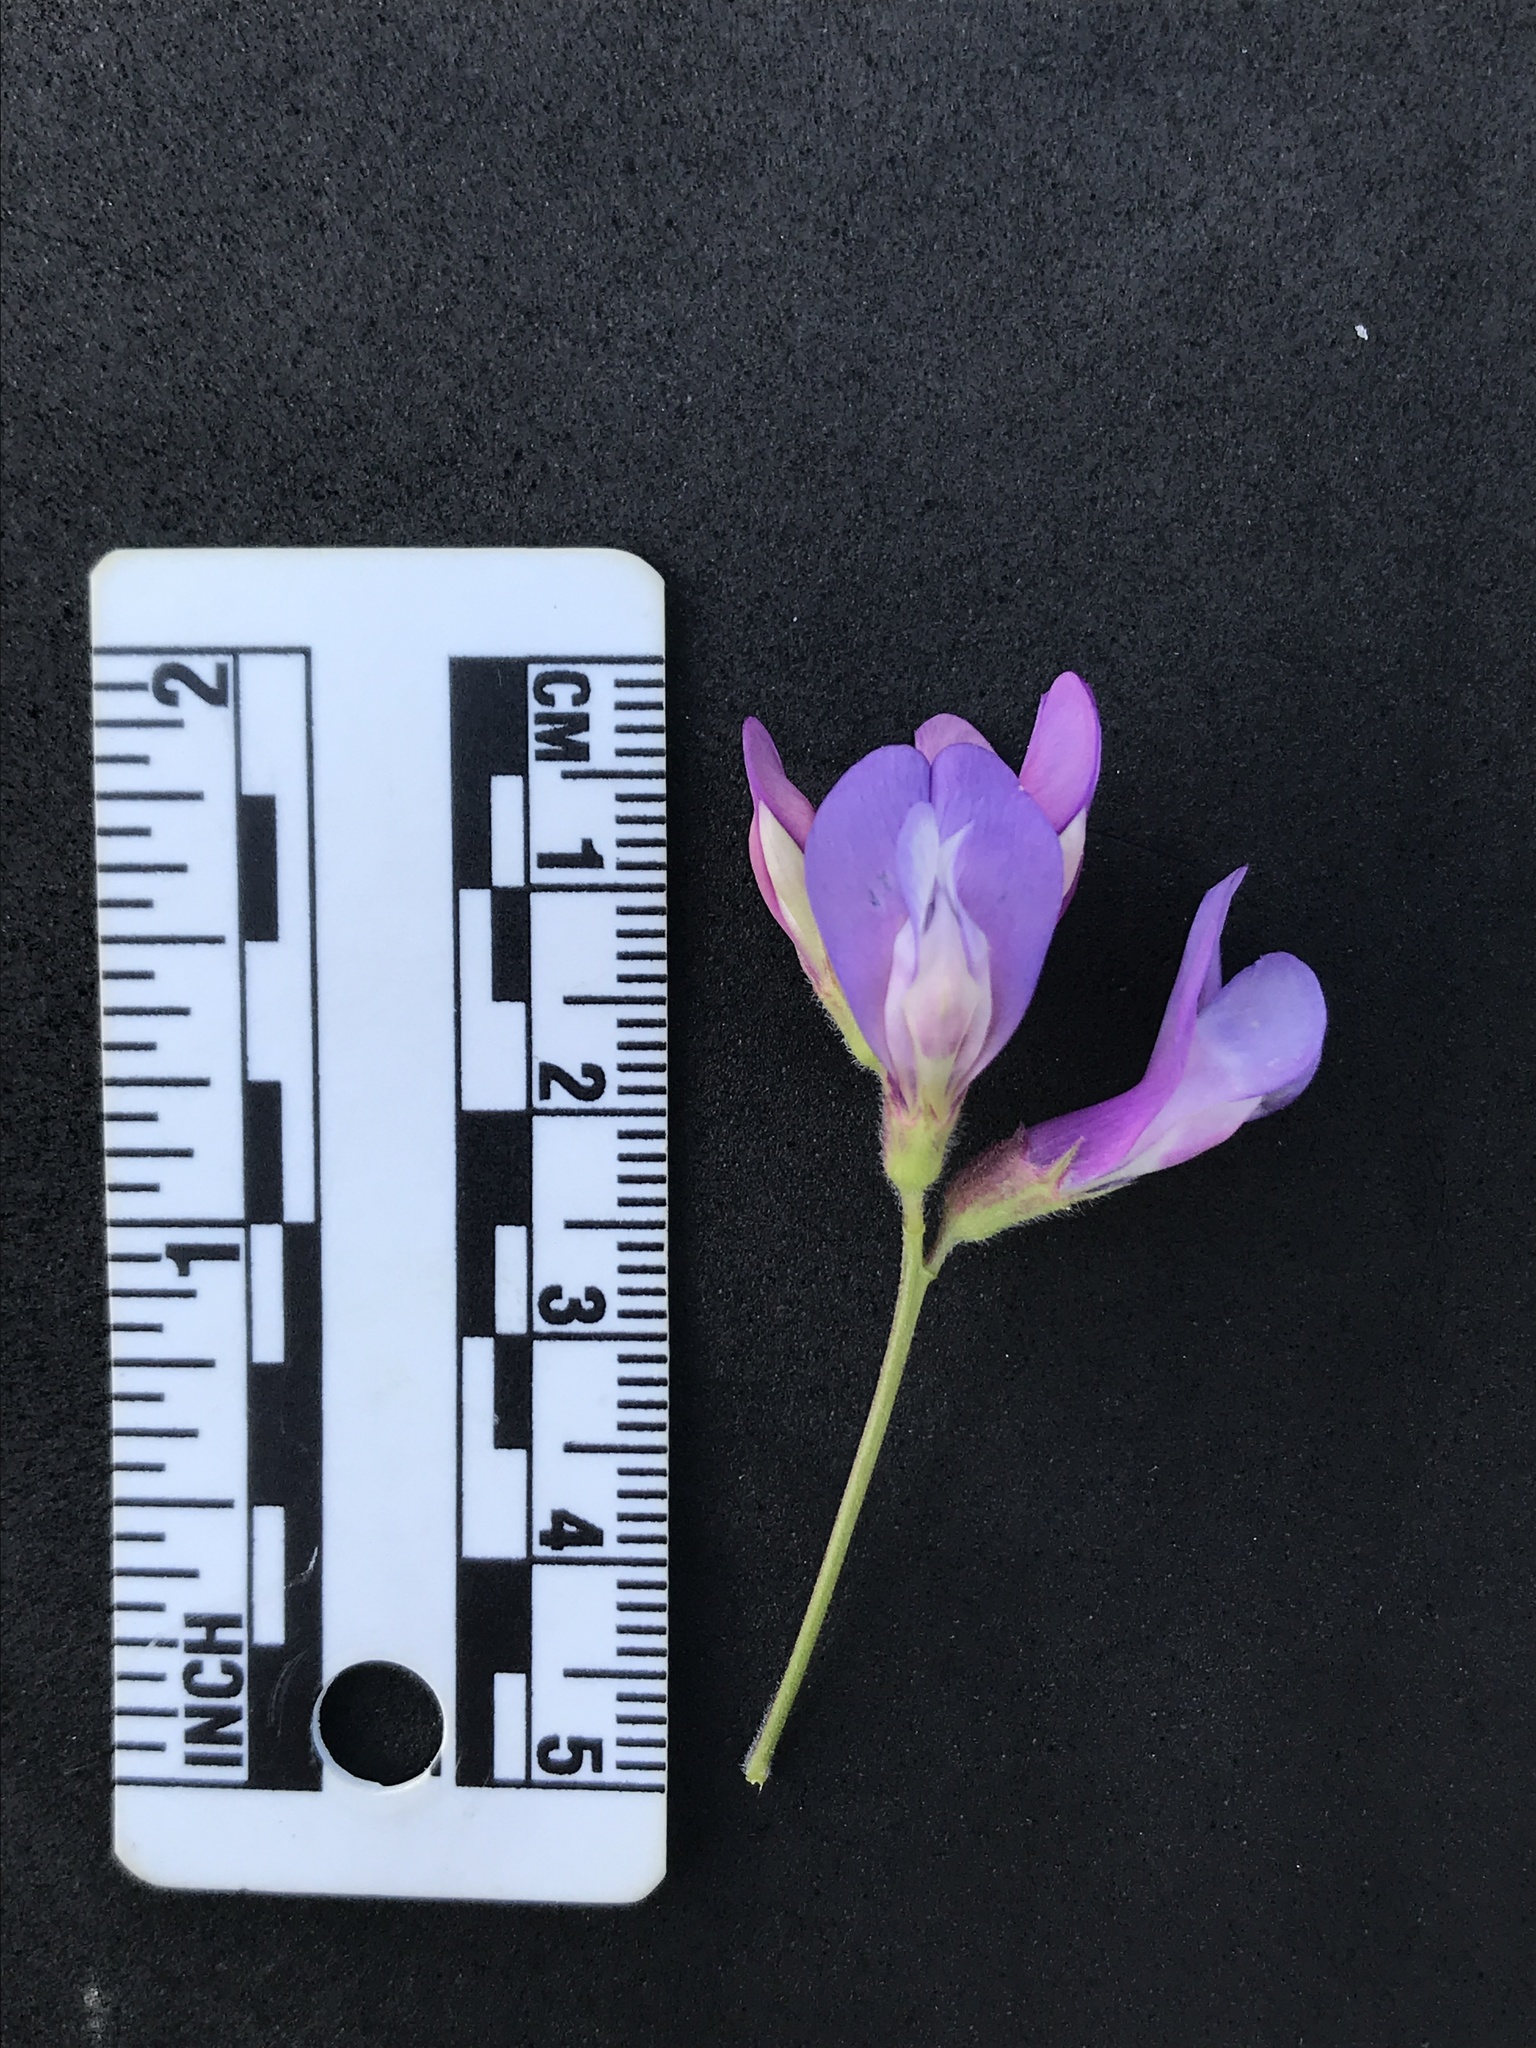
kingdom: Plantae
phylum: Tracheophyta
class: Magnoliopsida
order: Fabales
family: Fabaceae
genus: Vicia
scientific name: Vicia americana
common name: American vetch
